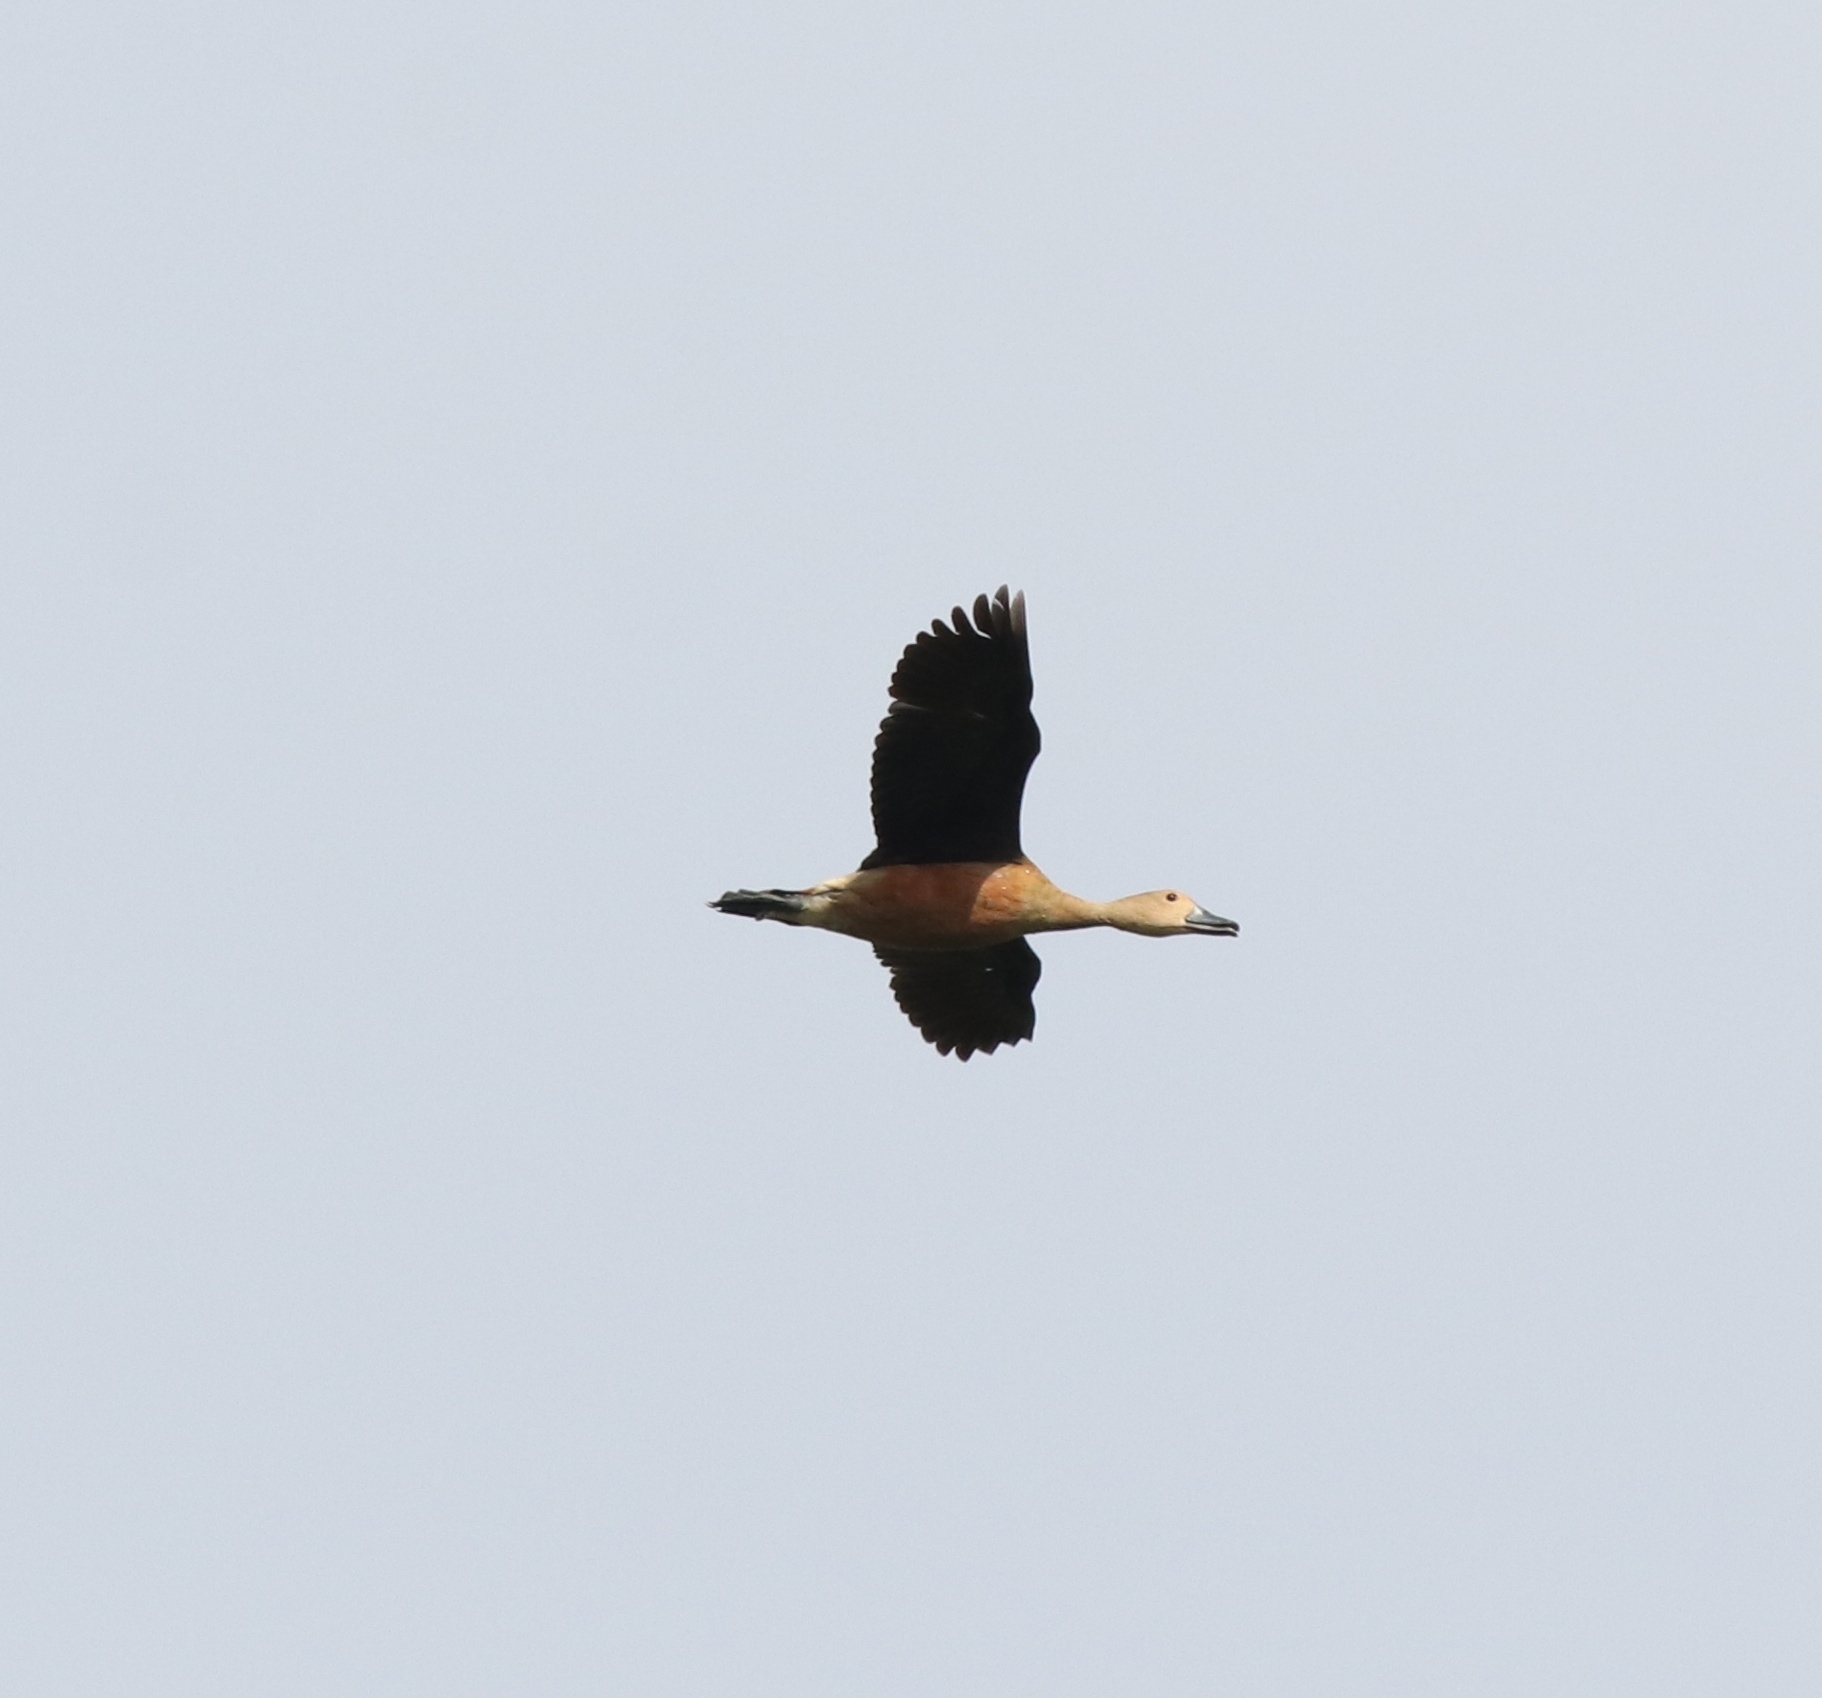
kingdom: Animalia
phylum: Chordata
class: Aves
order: Anseriformes
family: Anatidae
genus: Dendrocygna
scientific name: Dendrocygna javanica
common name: Lesser whistling-duck
